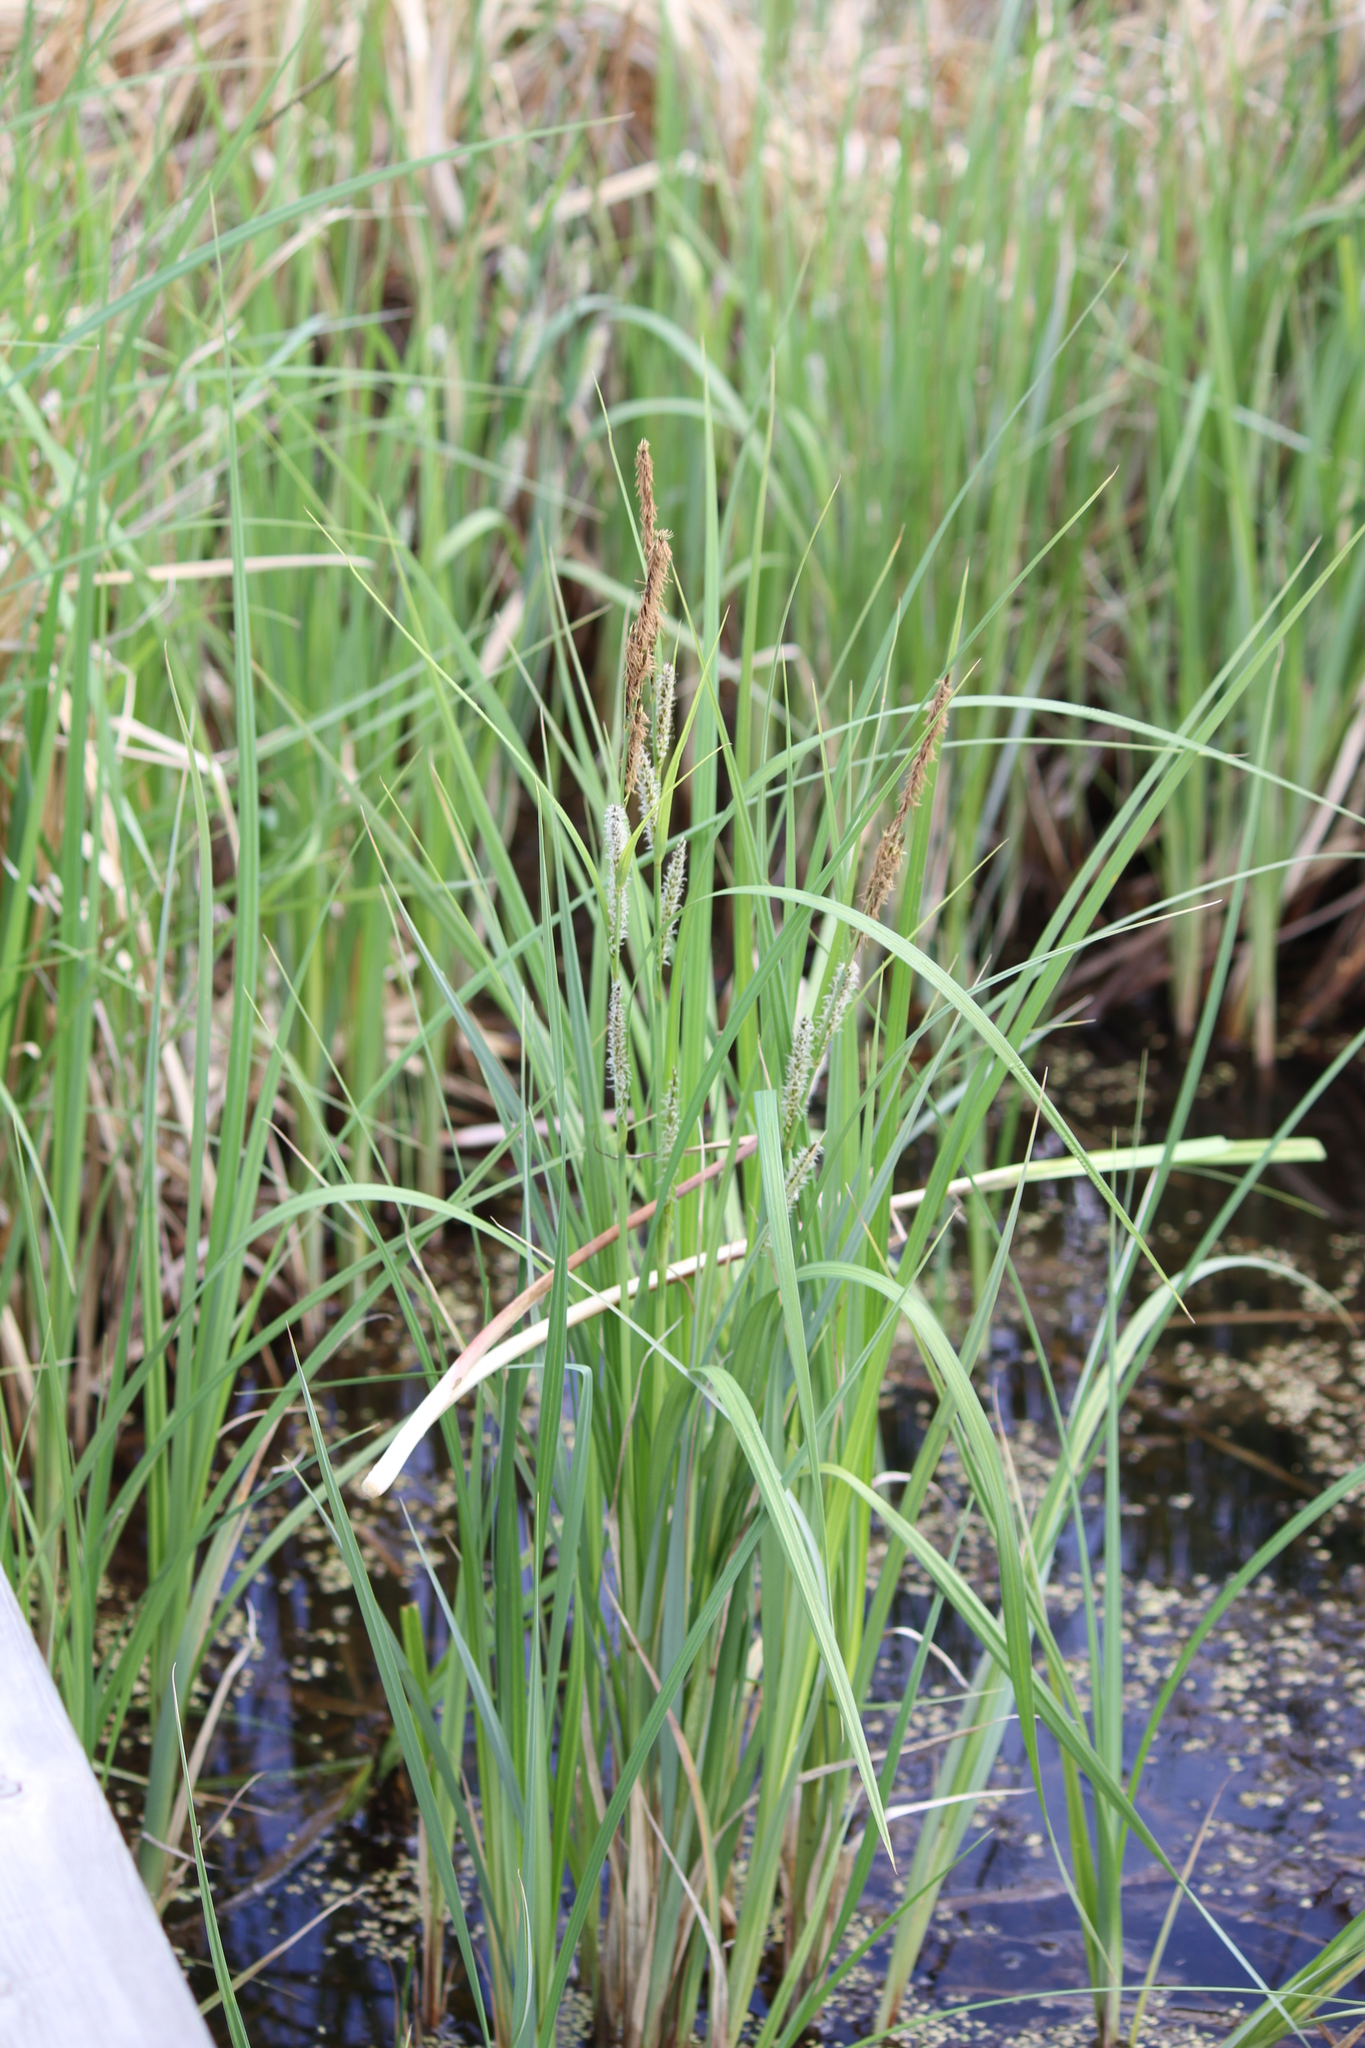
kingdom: Plantae
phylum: Tracheophyta
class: Liliopsida
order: Poales
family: Cyperaceae
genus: Carex
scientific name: Carex aquatilis
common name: Water sedge
